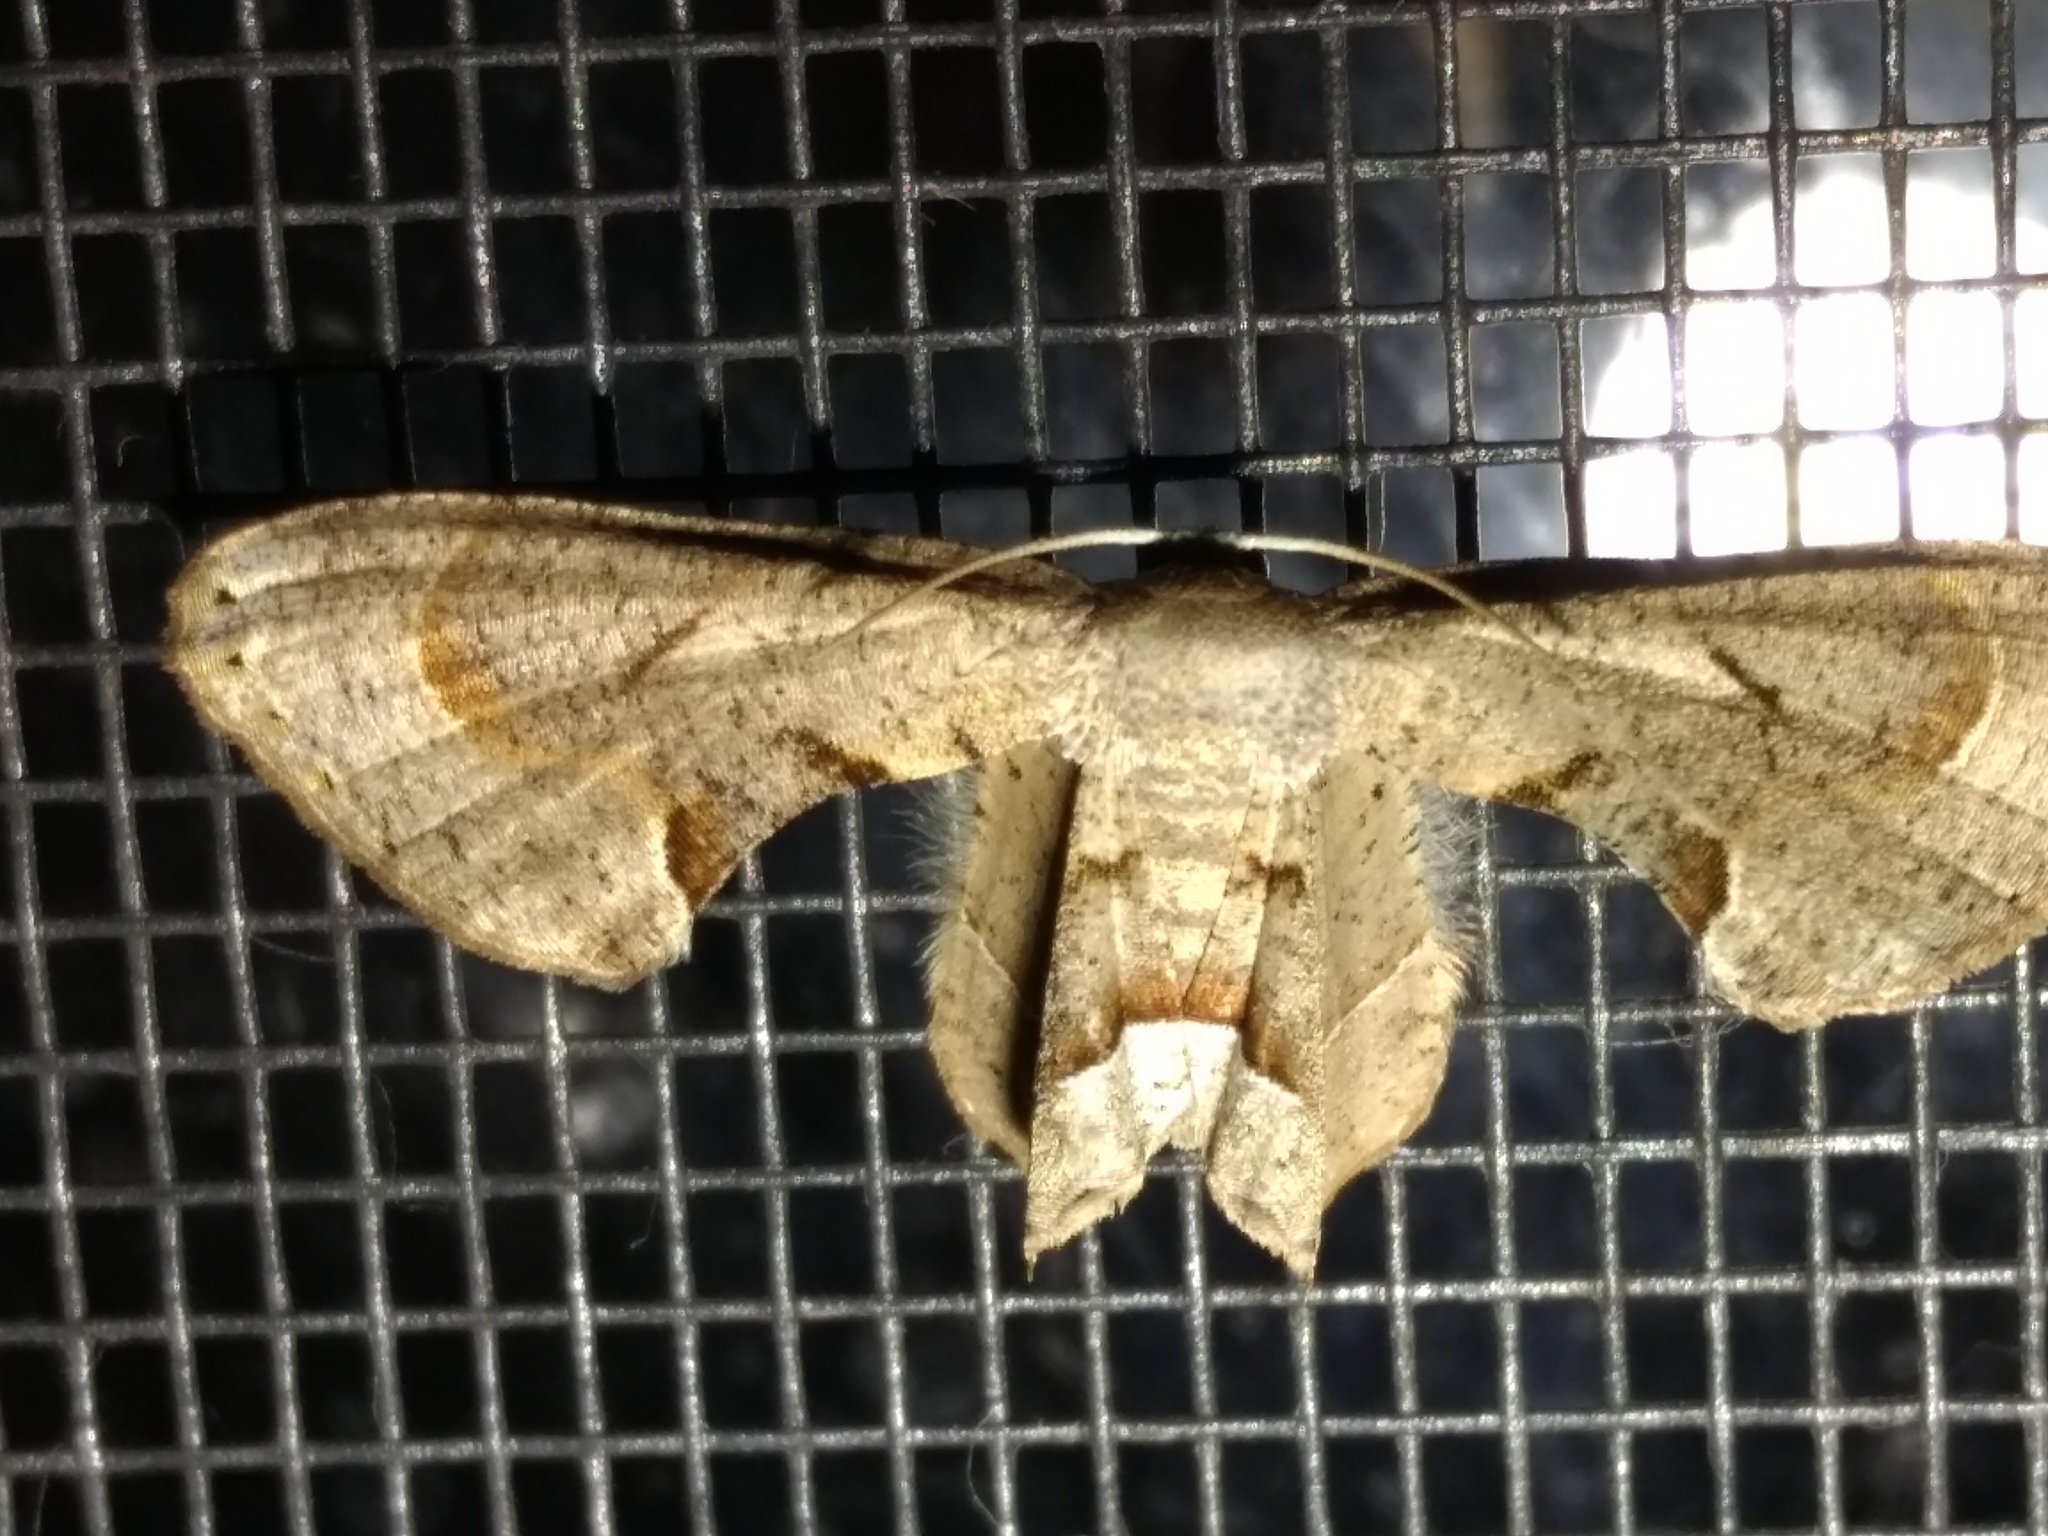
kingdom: Animalia
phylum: Arthropoda
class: Insecta
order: Lepidoptera
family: Uraniidae
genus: Phazaca
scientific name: Phazaca leucocephala
